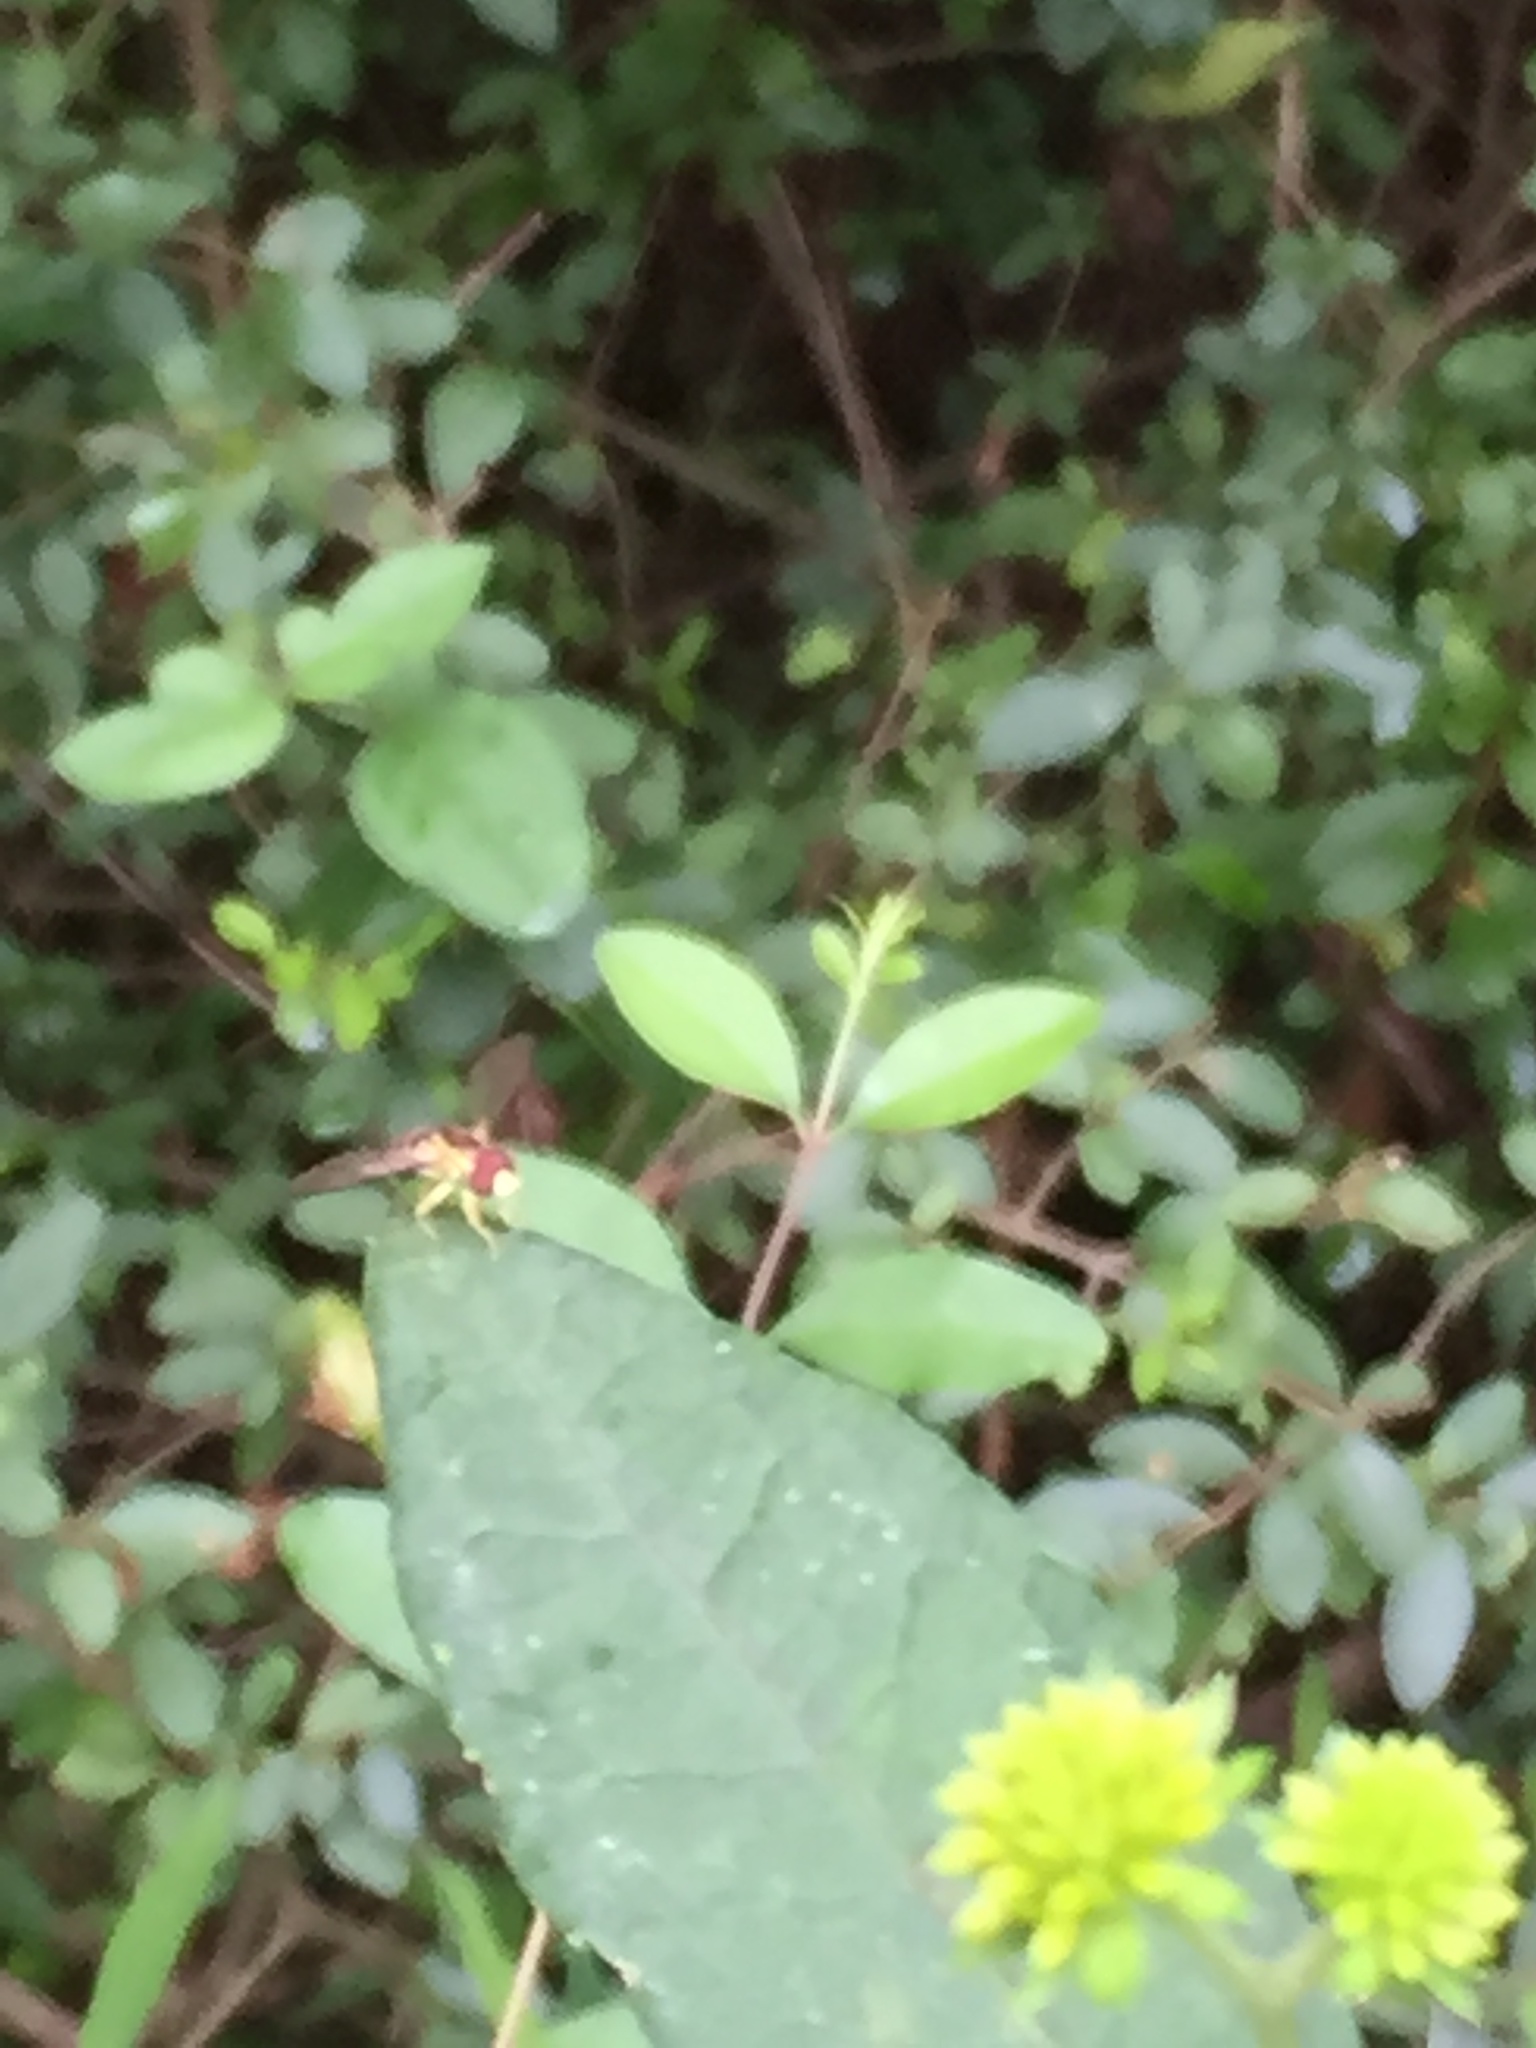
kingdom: Animalia
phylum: Arthropoda
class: Insecta
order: Diptera
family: Syrphidae
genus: Toxomerus
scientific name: Toxomerus geminatus
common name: Eastern calligrapher
